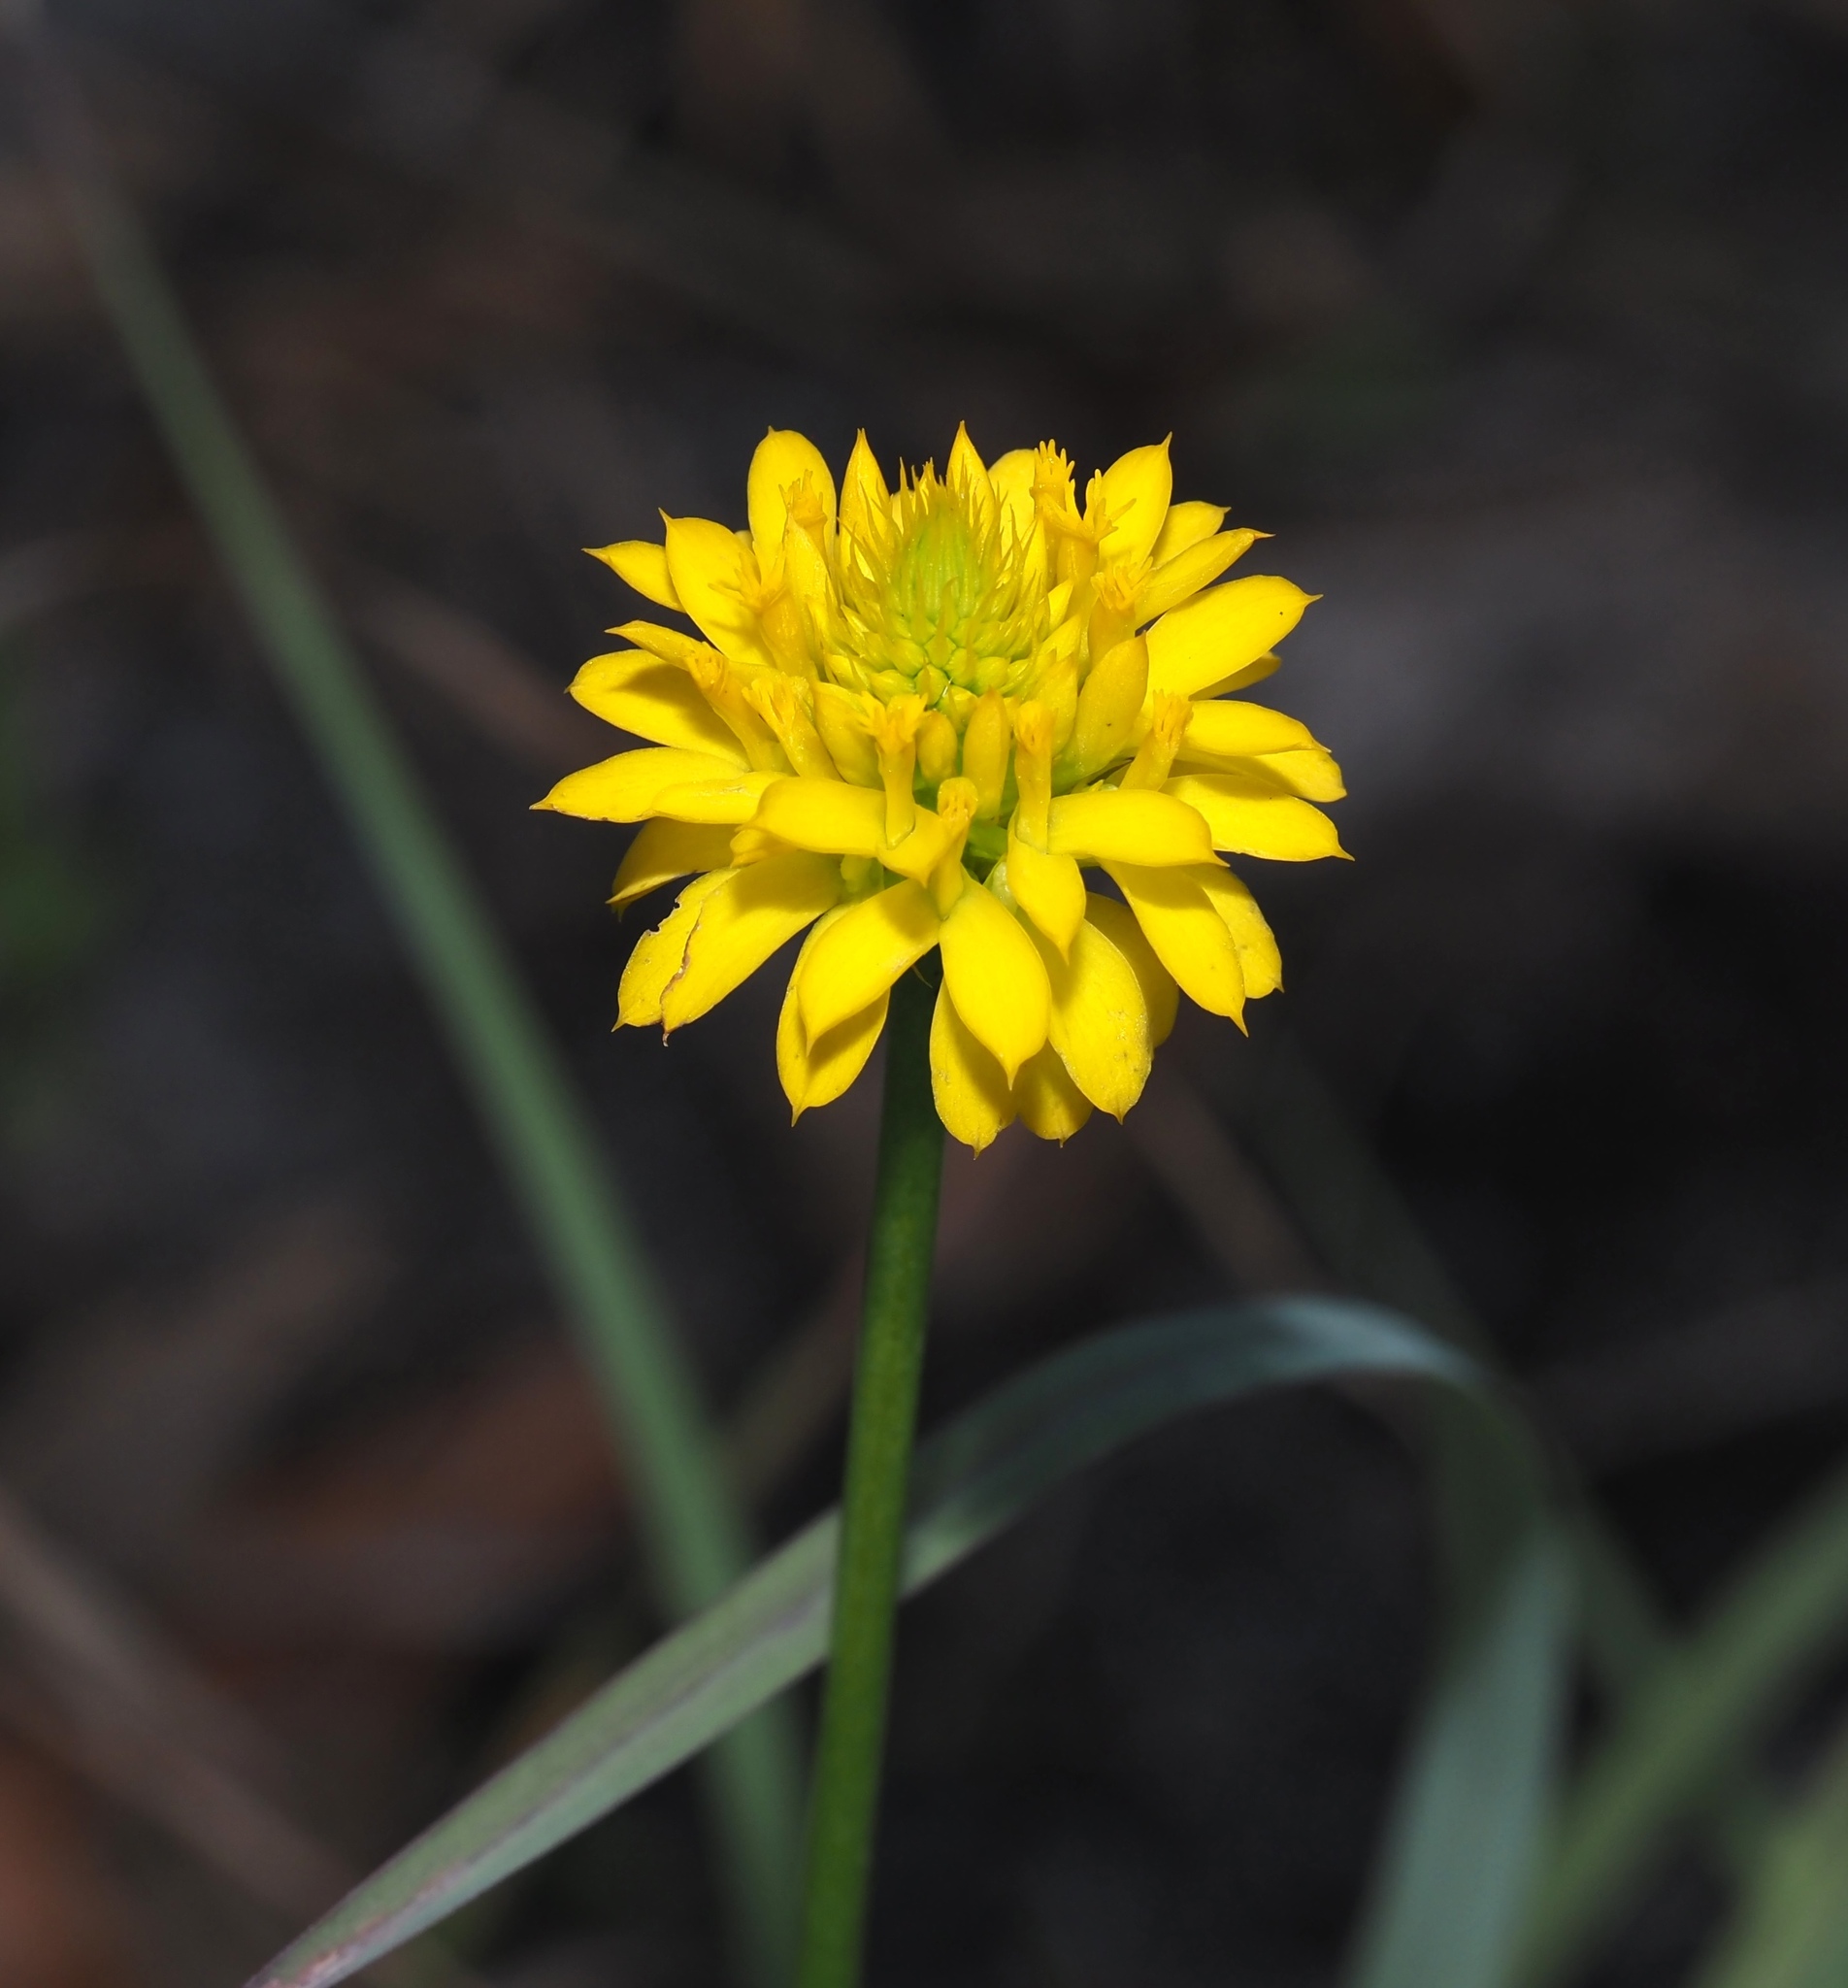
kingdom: Plantae
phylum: Tracheophyta
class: Magnoliopsida
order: Fabales
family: Polygalaceae
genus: Polygala
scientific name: Polygala rugelii
